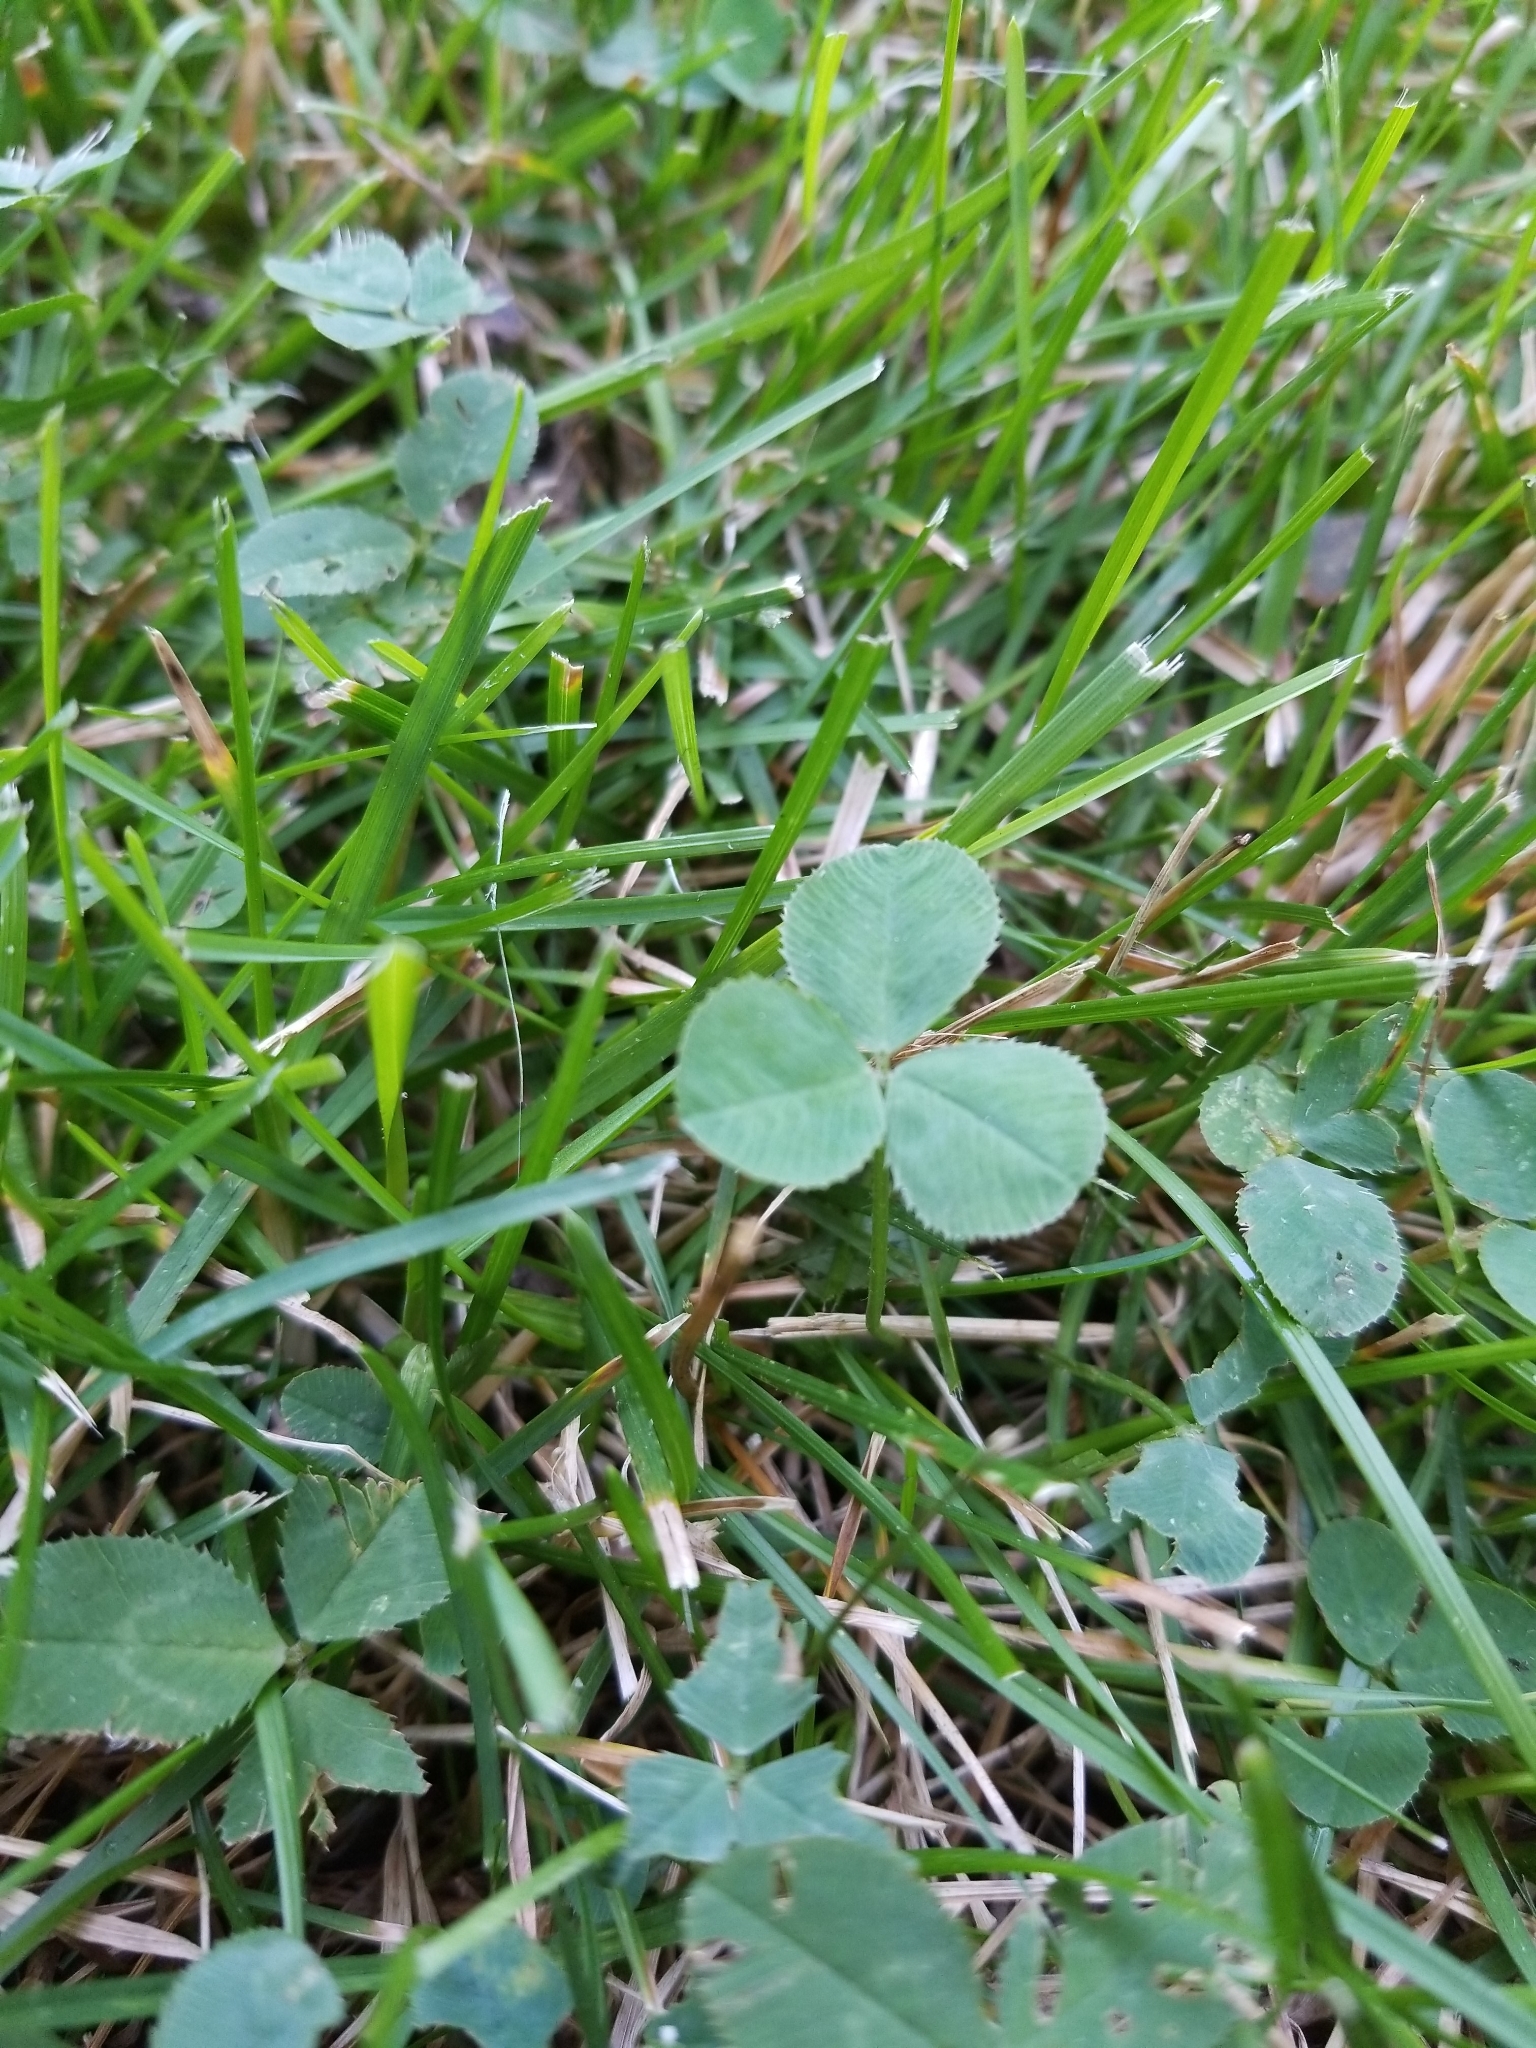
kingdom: Plantae
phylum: Tracheophyta
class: Magnoliopsida
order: Fabales
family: Fabaceae
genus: Trifolium
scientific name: Trifolium repens
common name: White clover
